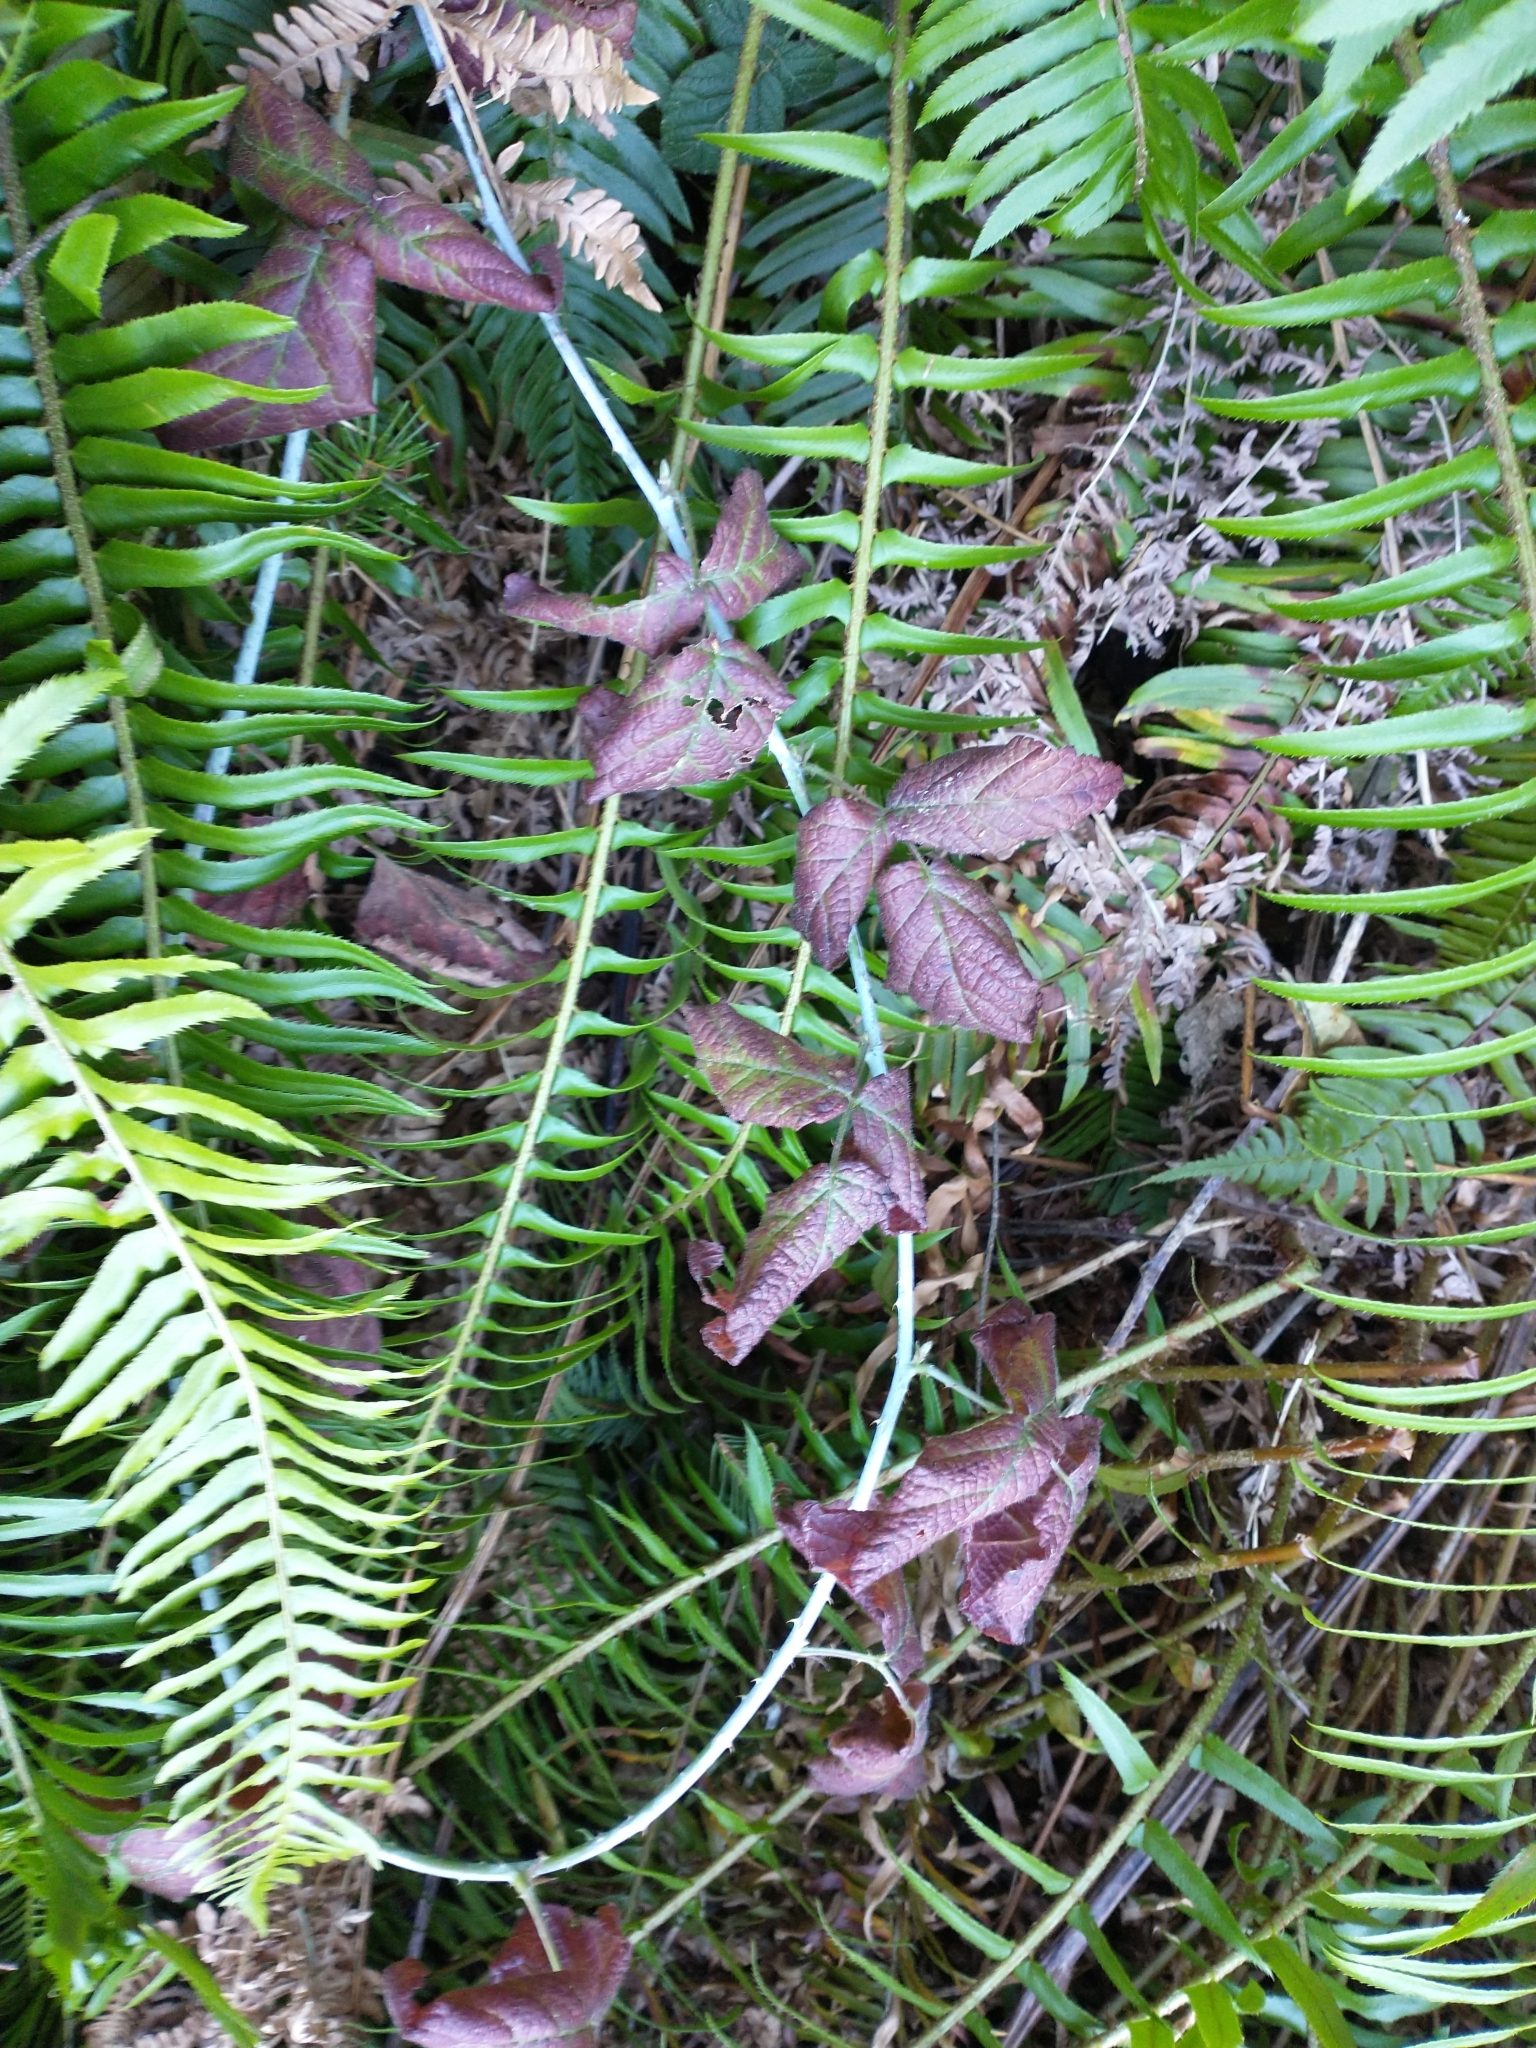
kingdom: Plantae
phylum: Tracheophyta
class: Polypodiopsida
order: Polypodiales
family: Dryopteridaceae
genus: Polystichum
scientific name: Polystichum munitum
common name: Western sword-fern
